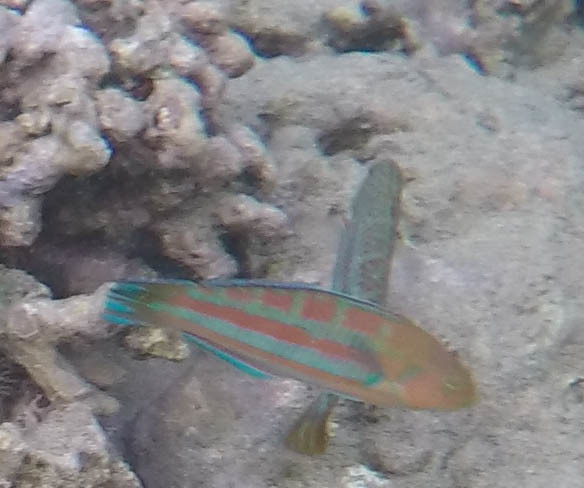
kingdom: Animalia
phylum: Chordata
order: Perciformes
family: Labridae
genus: Thalassoma
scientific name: Thalassoma trilobatum
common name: Christmas wrasse
